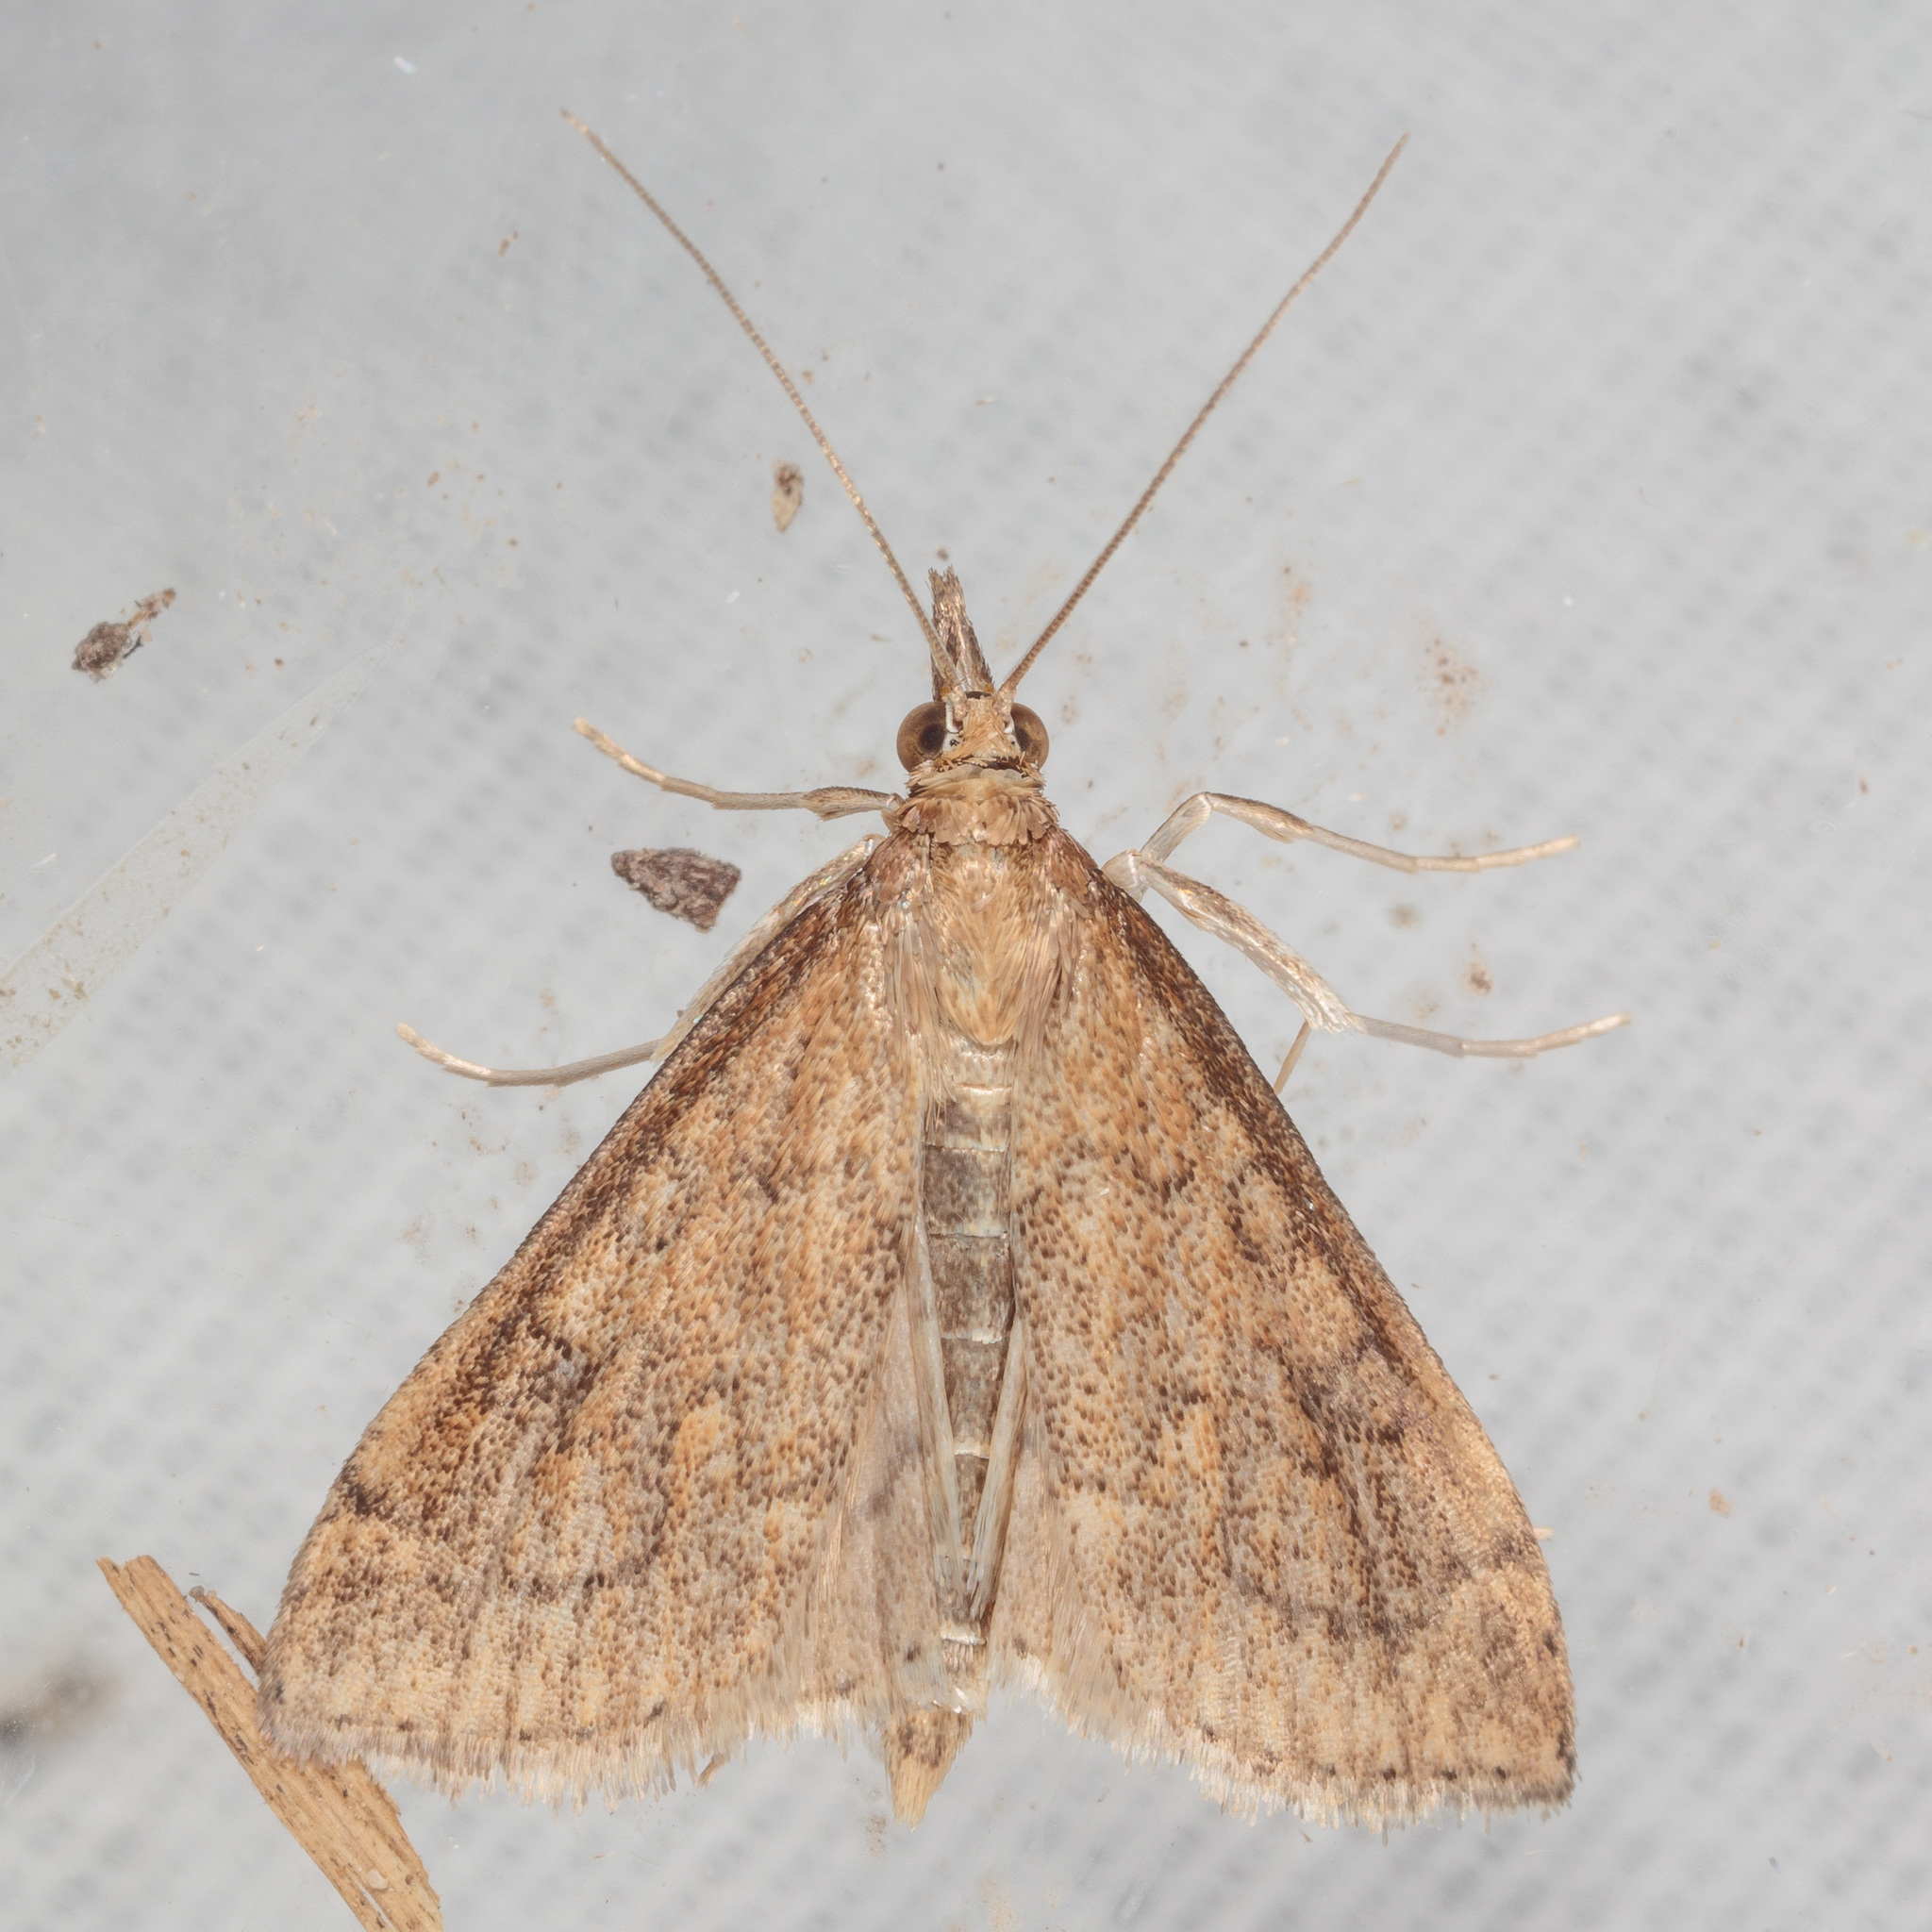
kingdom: Animalia
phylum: Arthropoda
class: Insecta
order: Lepidoptera
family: Crambidae
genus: Udea
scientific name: Udea rubigalis
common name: Celery leaftier moth
